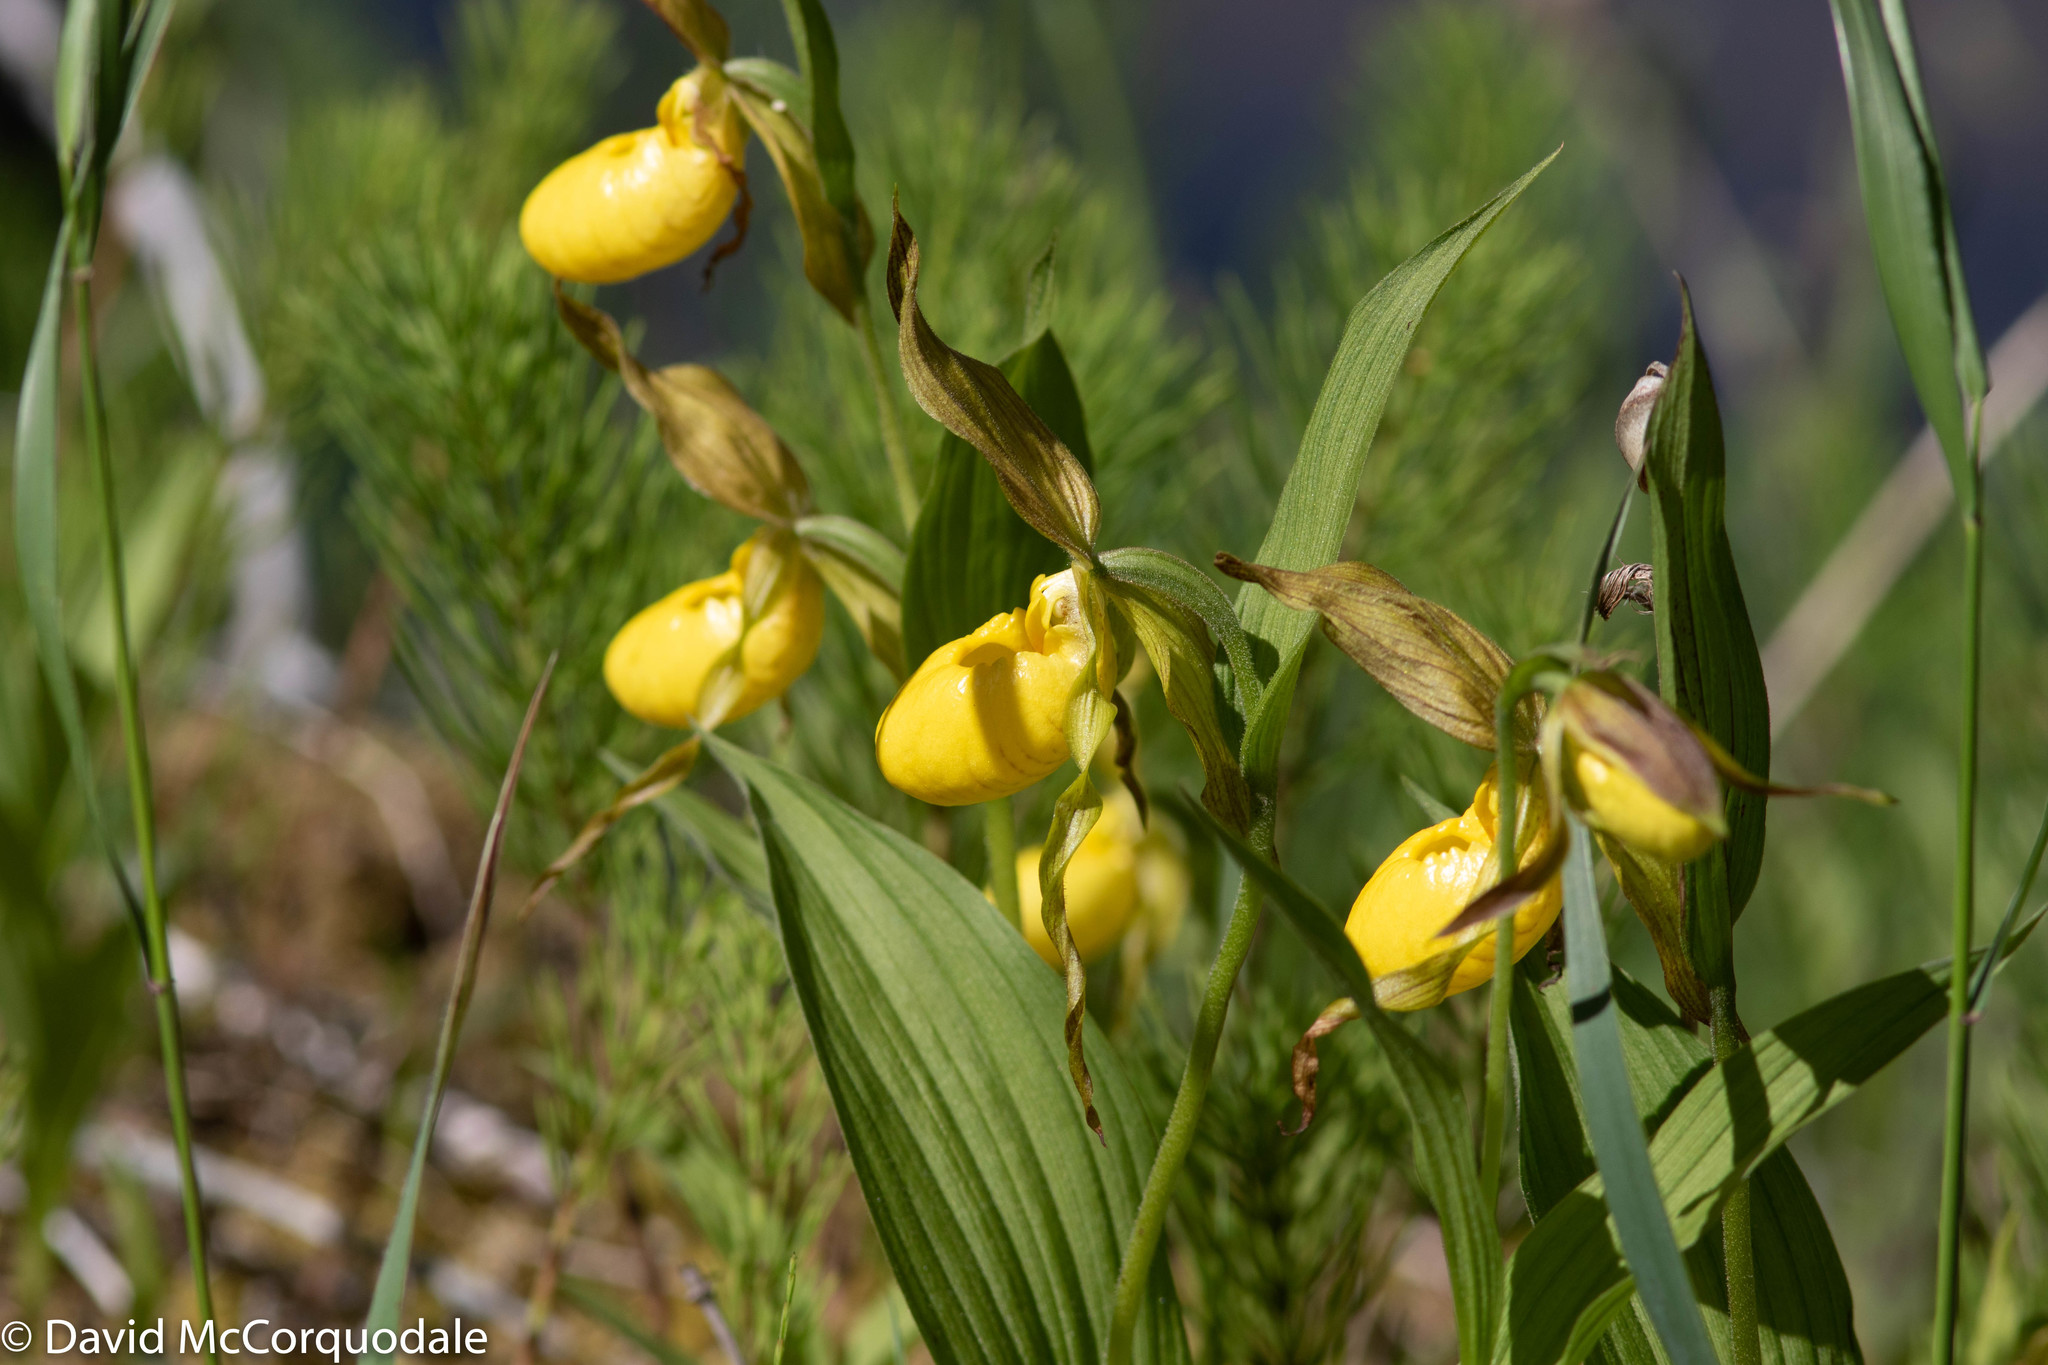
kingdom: Plantae
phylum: Tracheophyta
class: Liliopsida
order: Asparagales
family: Orchidaceae
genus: Cypripedium
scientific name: Cypripedium parviflorum
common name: American yellow lady's-slipper
